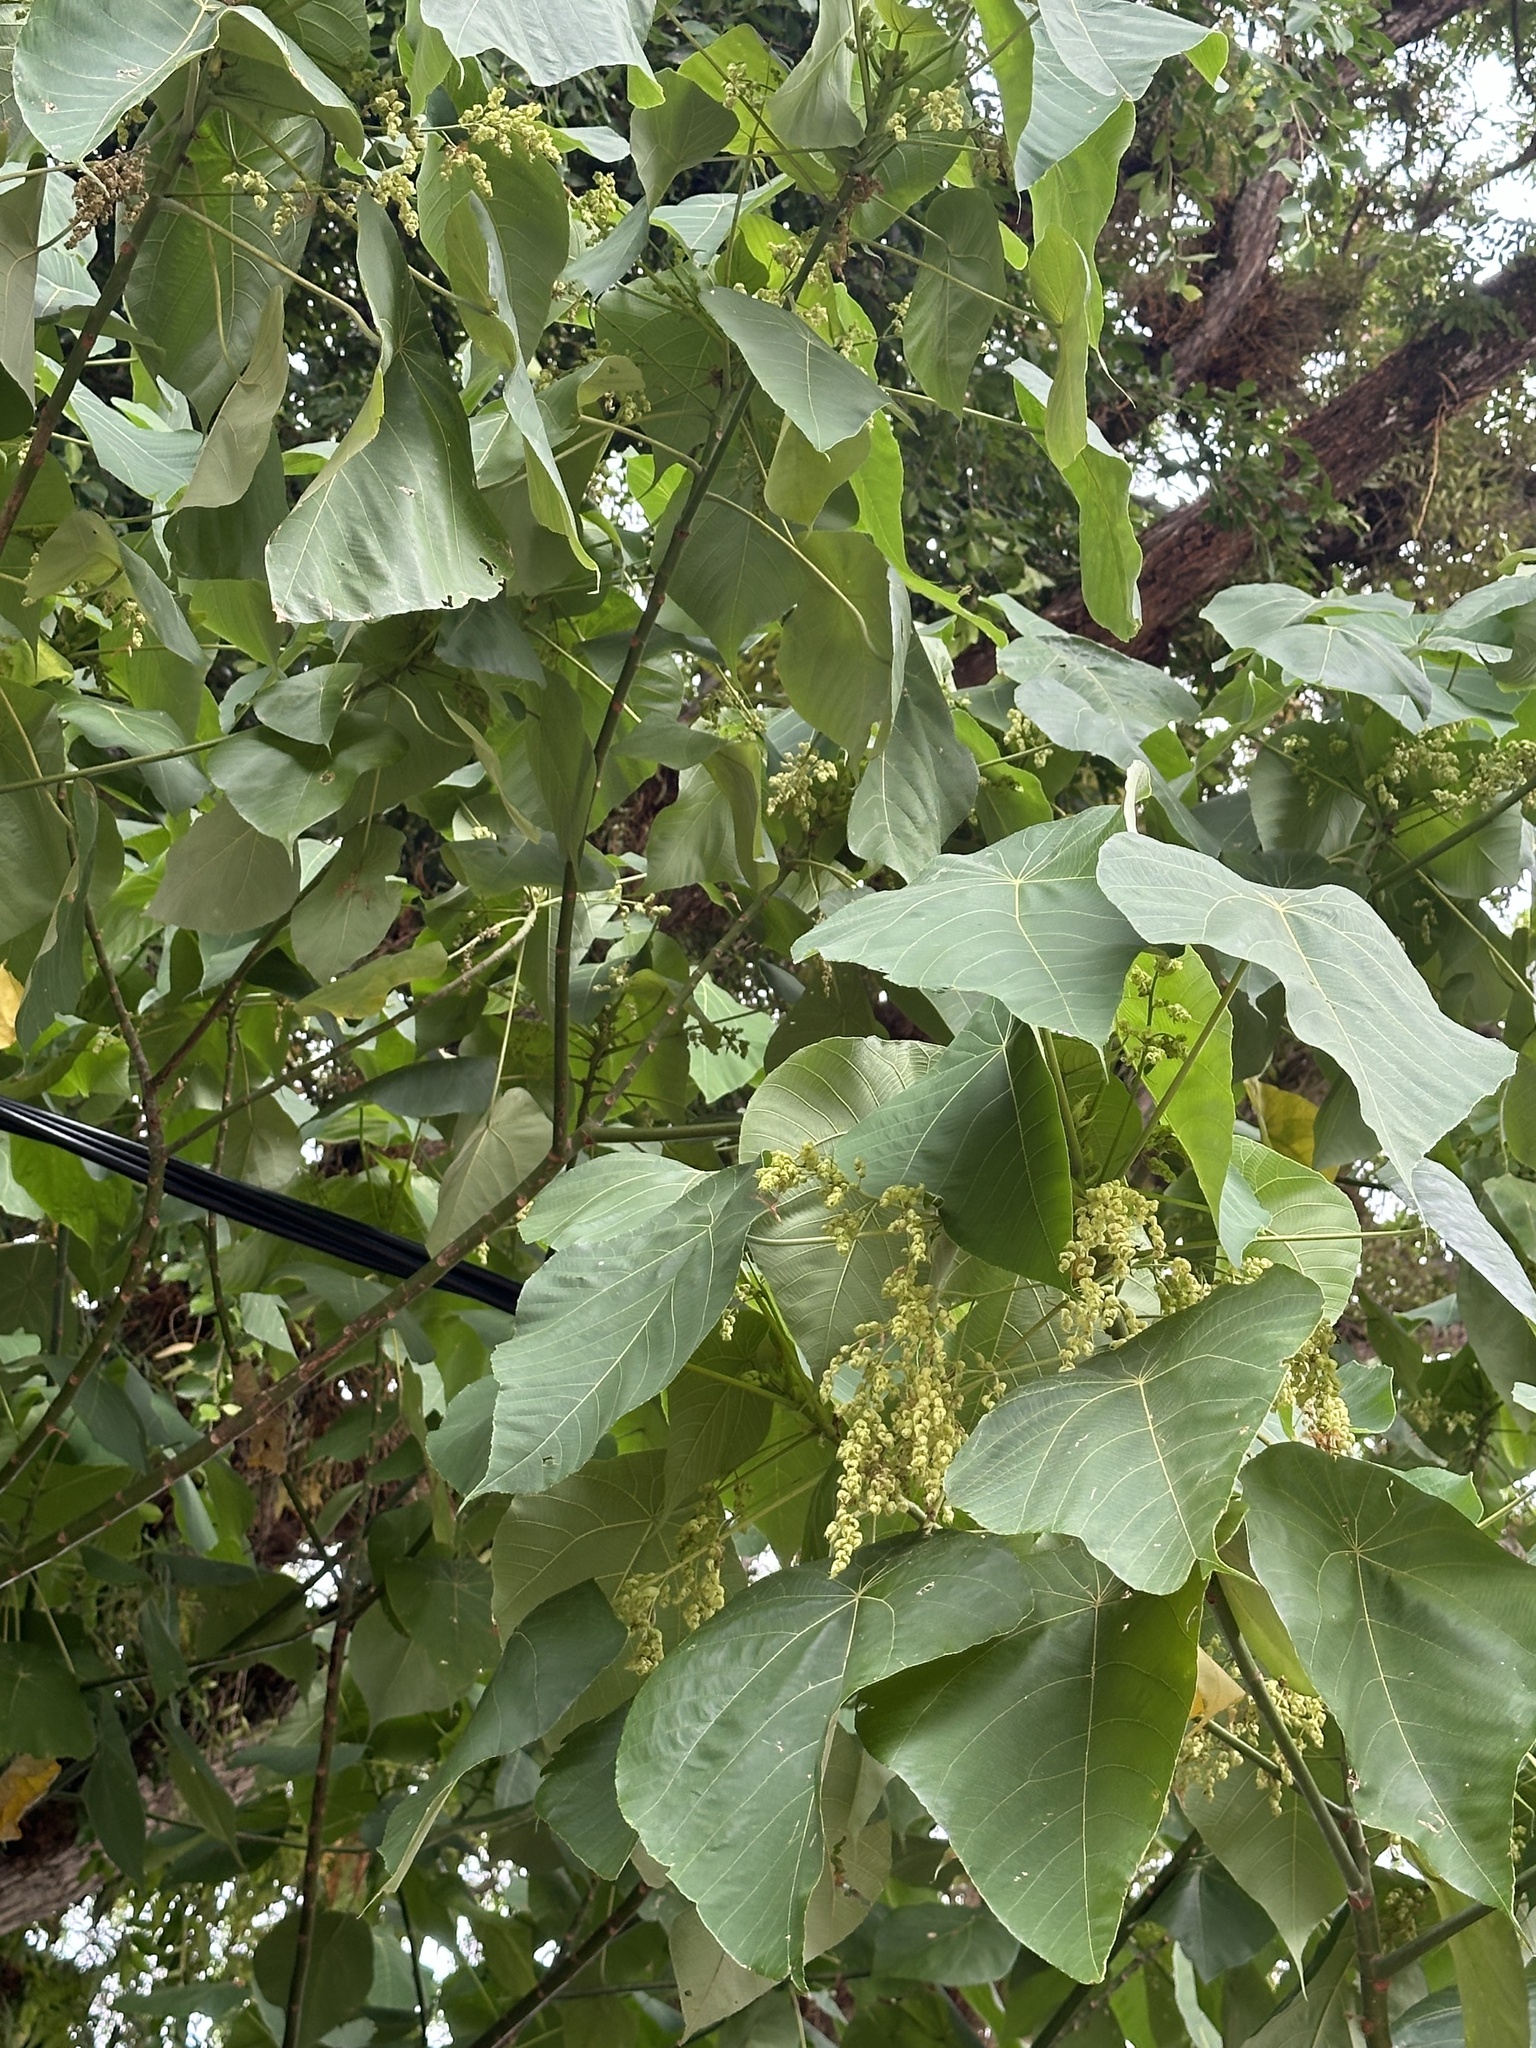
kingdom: Plantae
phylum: Tracheophyta
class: Magnoliopsida
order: Malpighiales
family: Euphorbiaceae
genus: Macaranga
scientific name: Macaranga tanarius
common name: Parasol leaf tree
